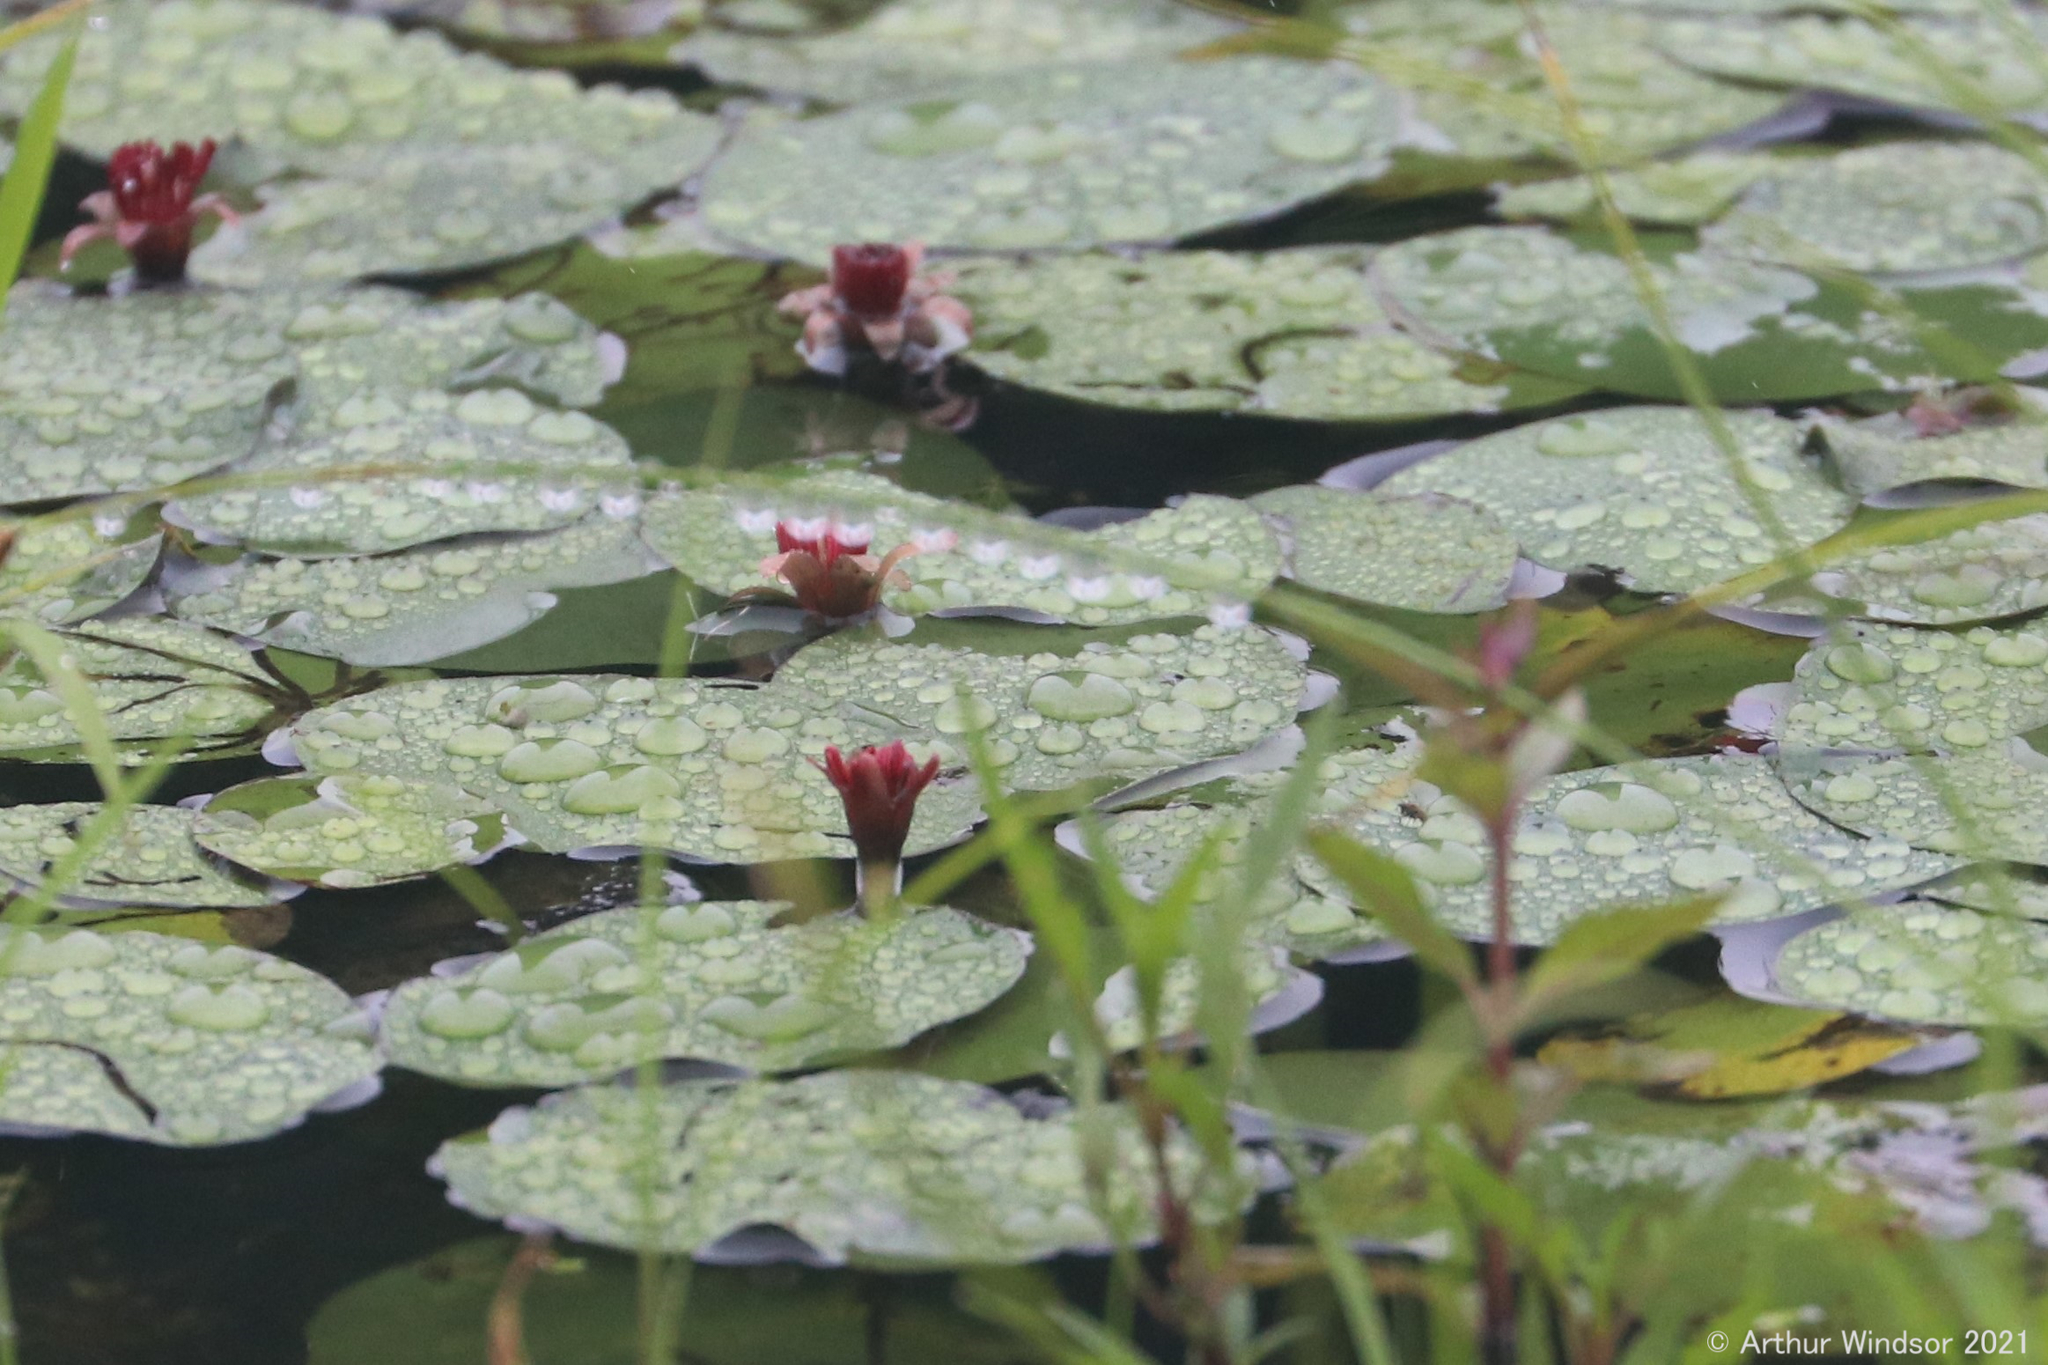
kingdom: Plantae
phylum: Tracheophyta
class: Magnoliopsida
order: Nymphaeales
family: Cabombaceae
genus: Brasenia
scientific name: Brasenia schreberi
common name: Water-shield
